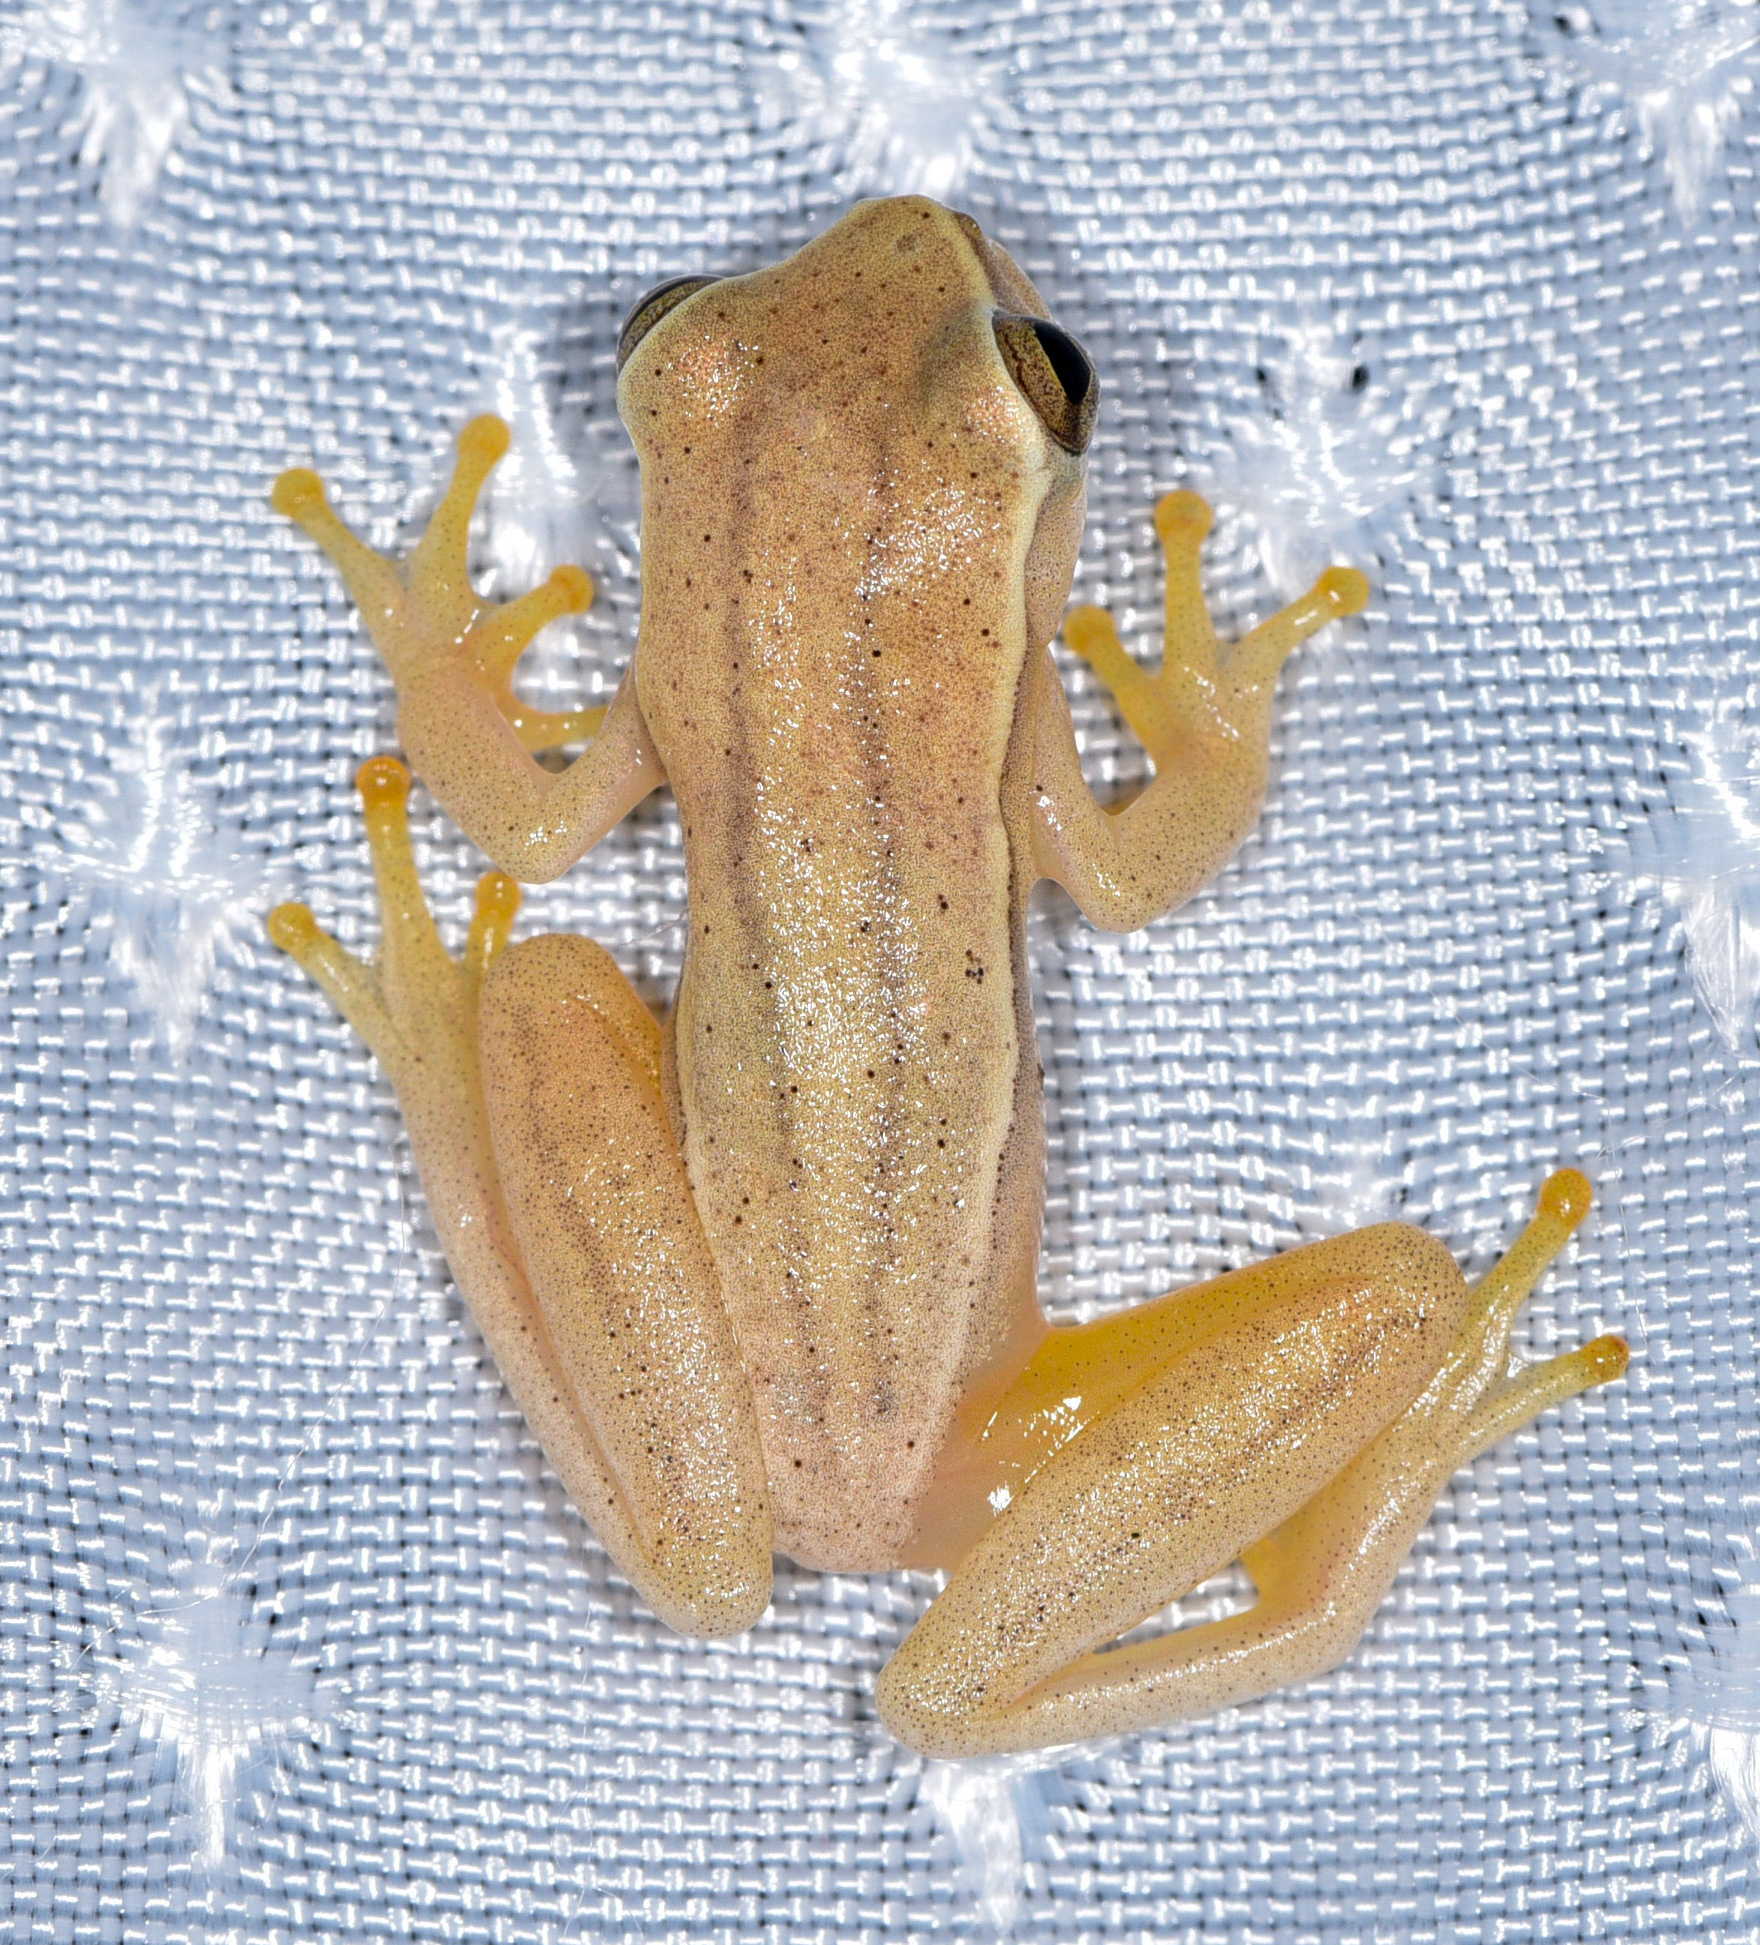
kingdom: Animalia
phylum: Chordata
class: Amphibia
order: Anura
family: Hylidae
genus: Dendropsophus
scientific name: Dendropsophus microcephalus
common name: Small-headed treefrog
